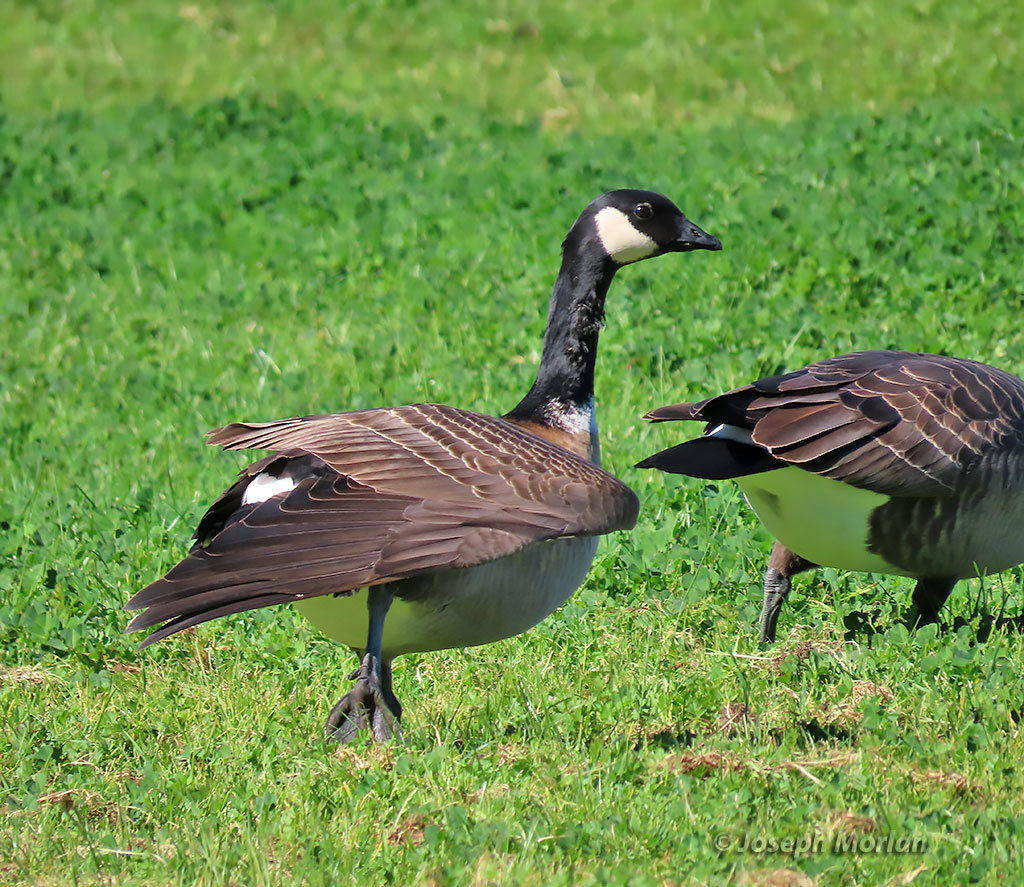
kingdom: Animalia
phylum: Chordata
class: Aves
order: Anseriformes
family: Anatidae
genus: Branta
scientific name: Branta hutchinsii
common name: Cackling goose
